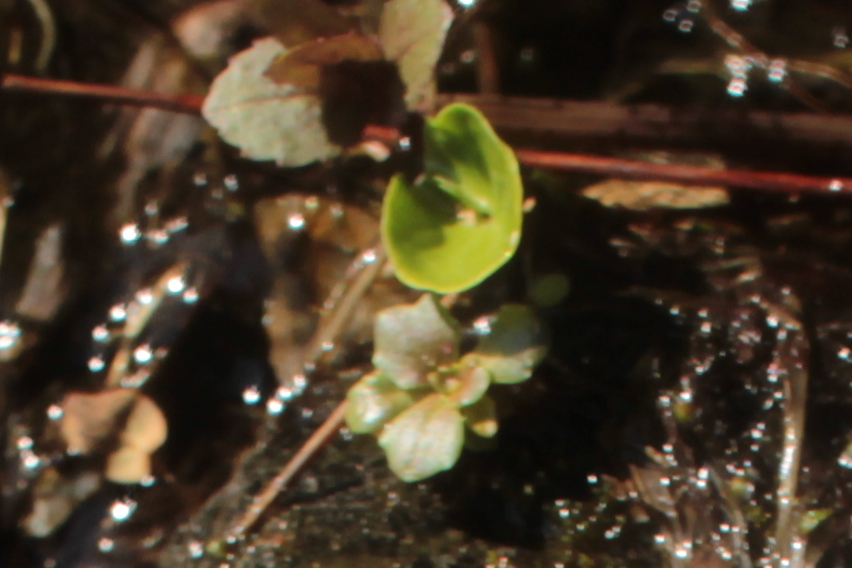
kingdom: Plantae
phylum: Tracheophyta
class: Magnoliopsida
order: Saxifragales
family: Saxifragaceae
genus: Micranthes
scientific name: Micranthes petiolaris
